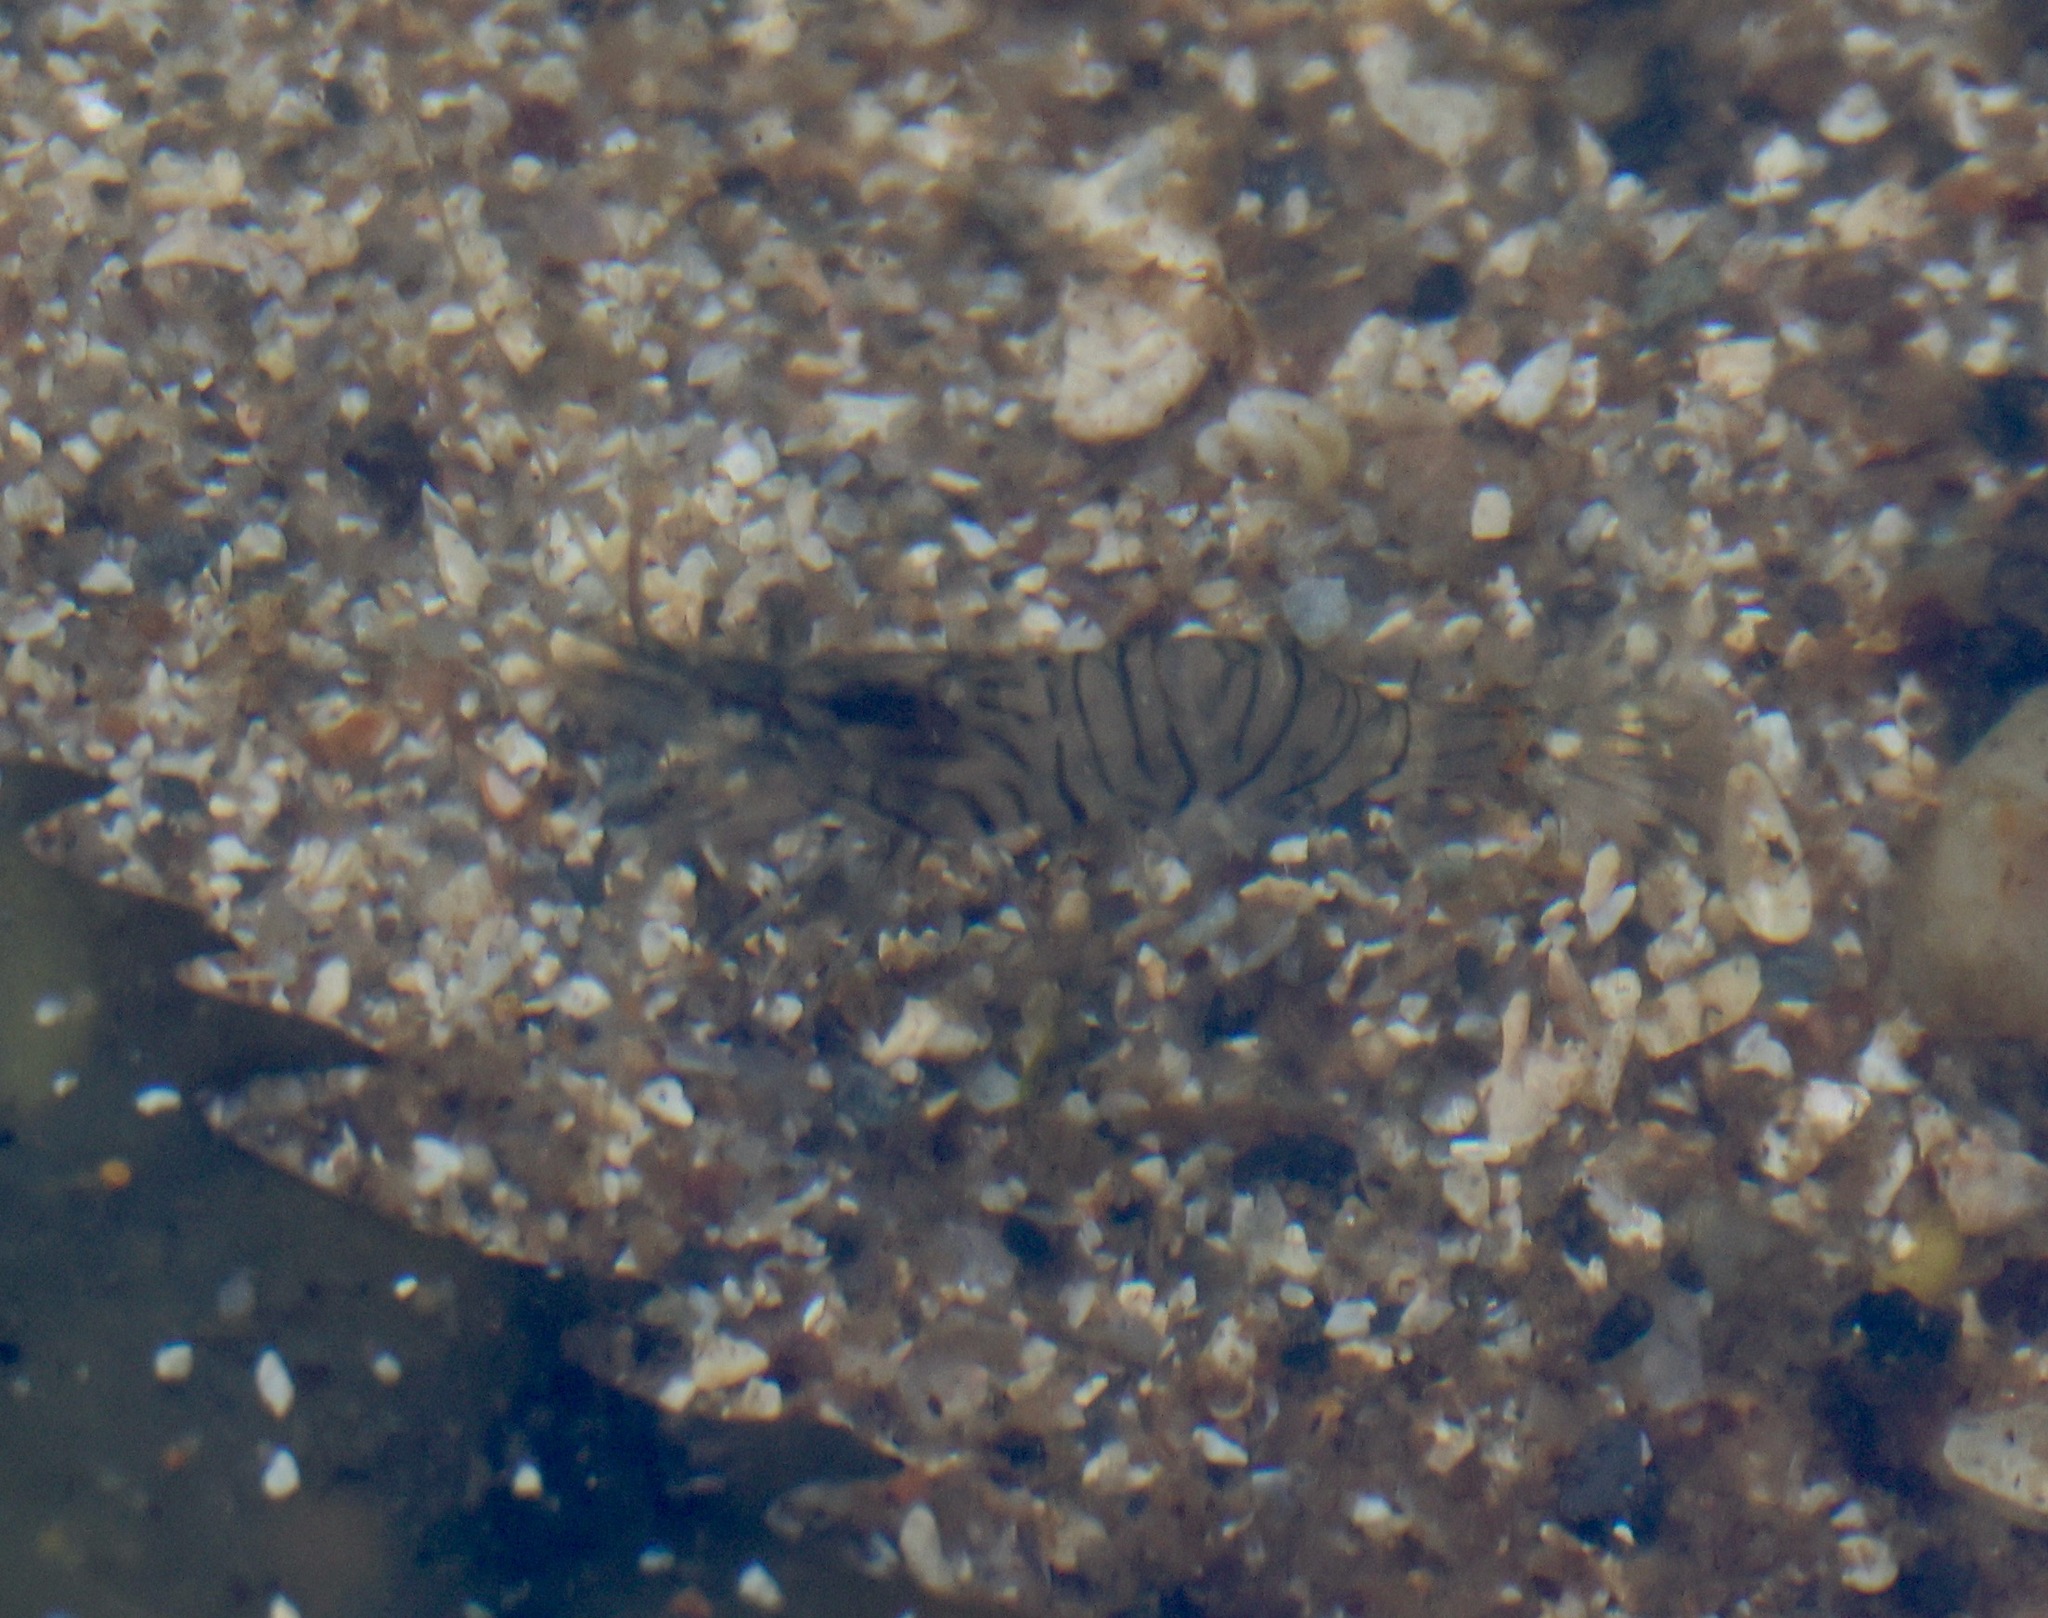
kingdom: Animalia
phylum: Arthropoda
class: Malacostraca
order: Decapoda
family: Palaemonidae
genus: Palaemon
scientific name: Palaemon elegans
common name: Grass prawm
